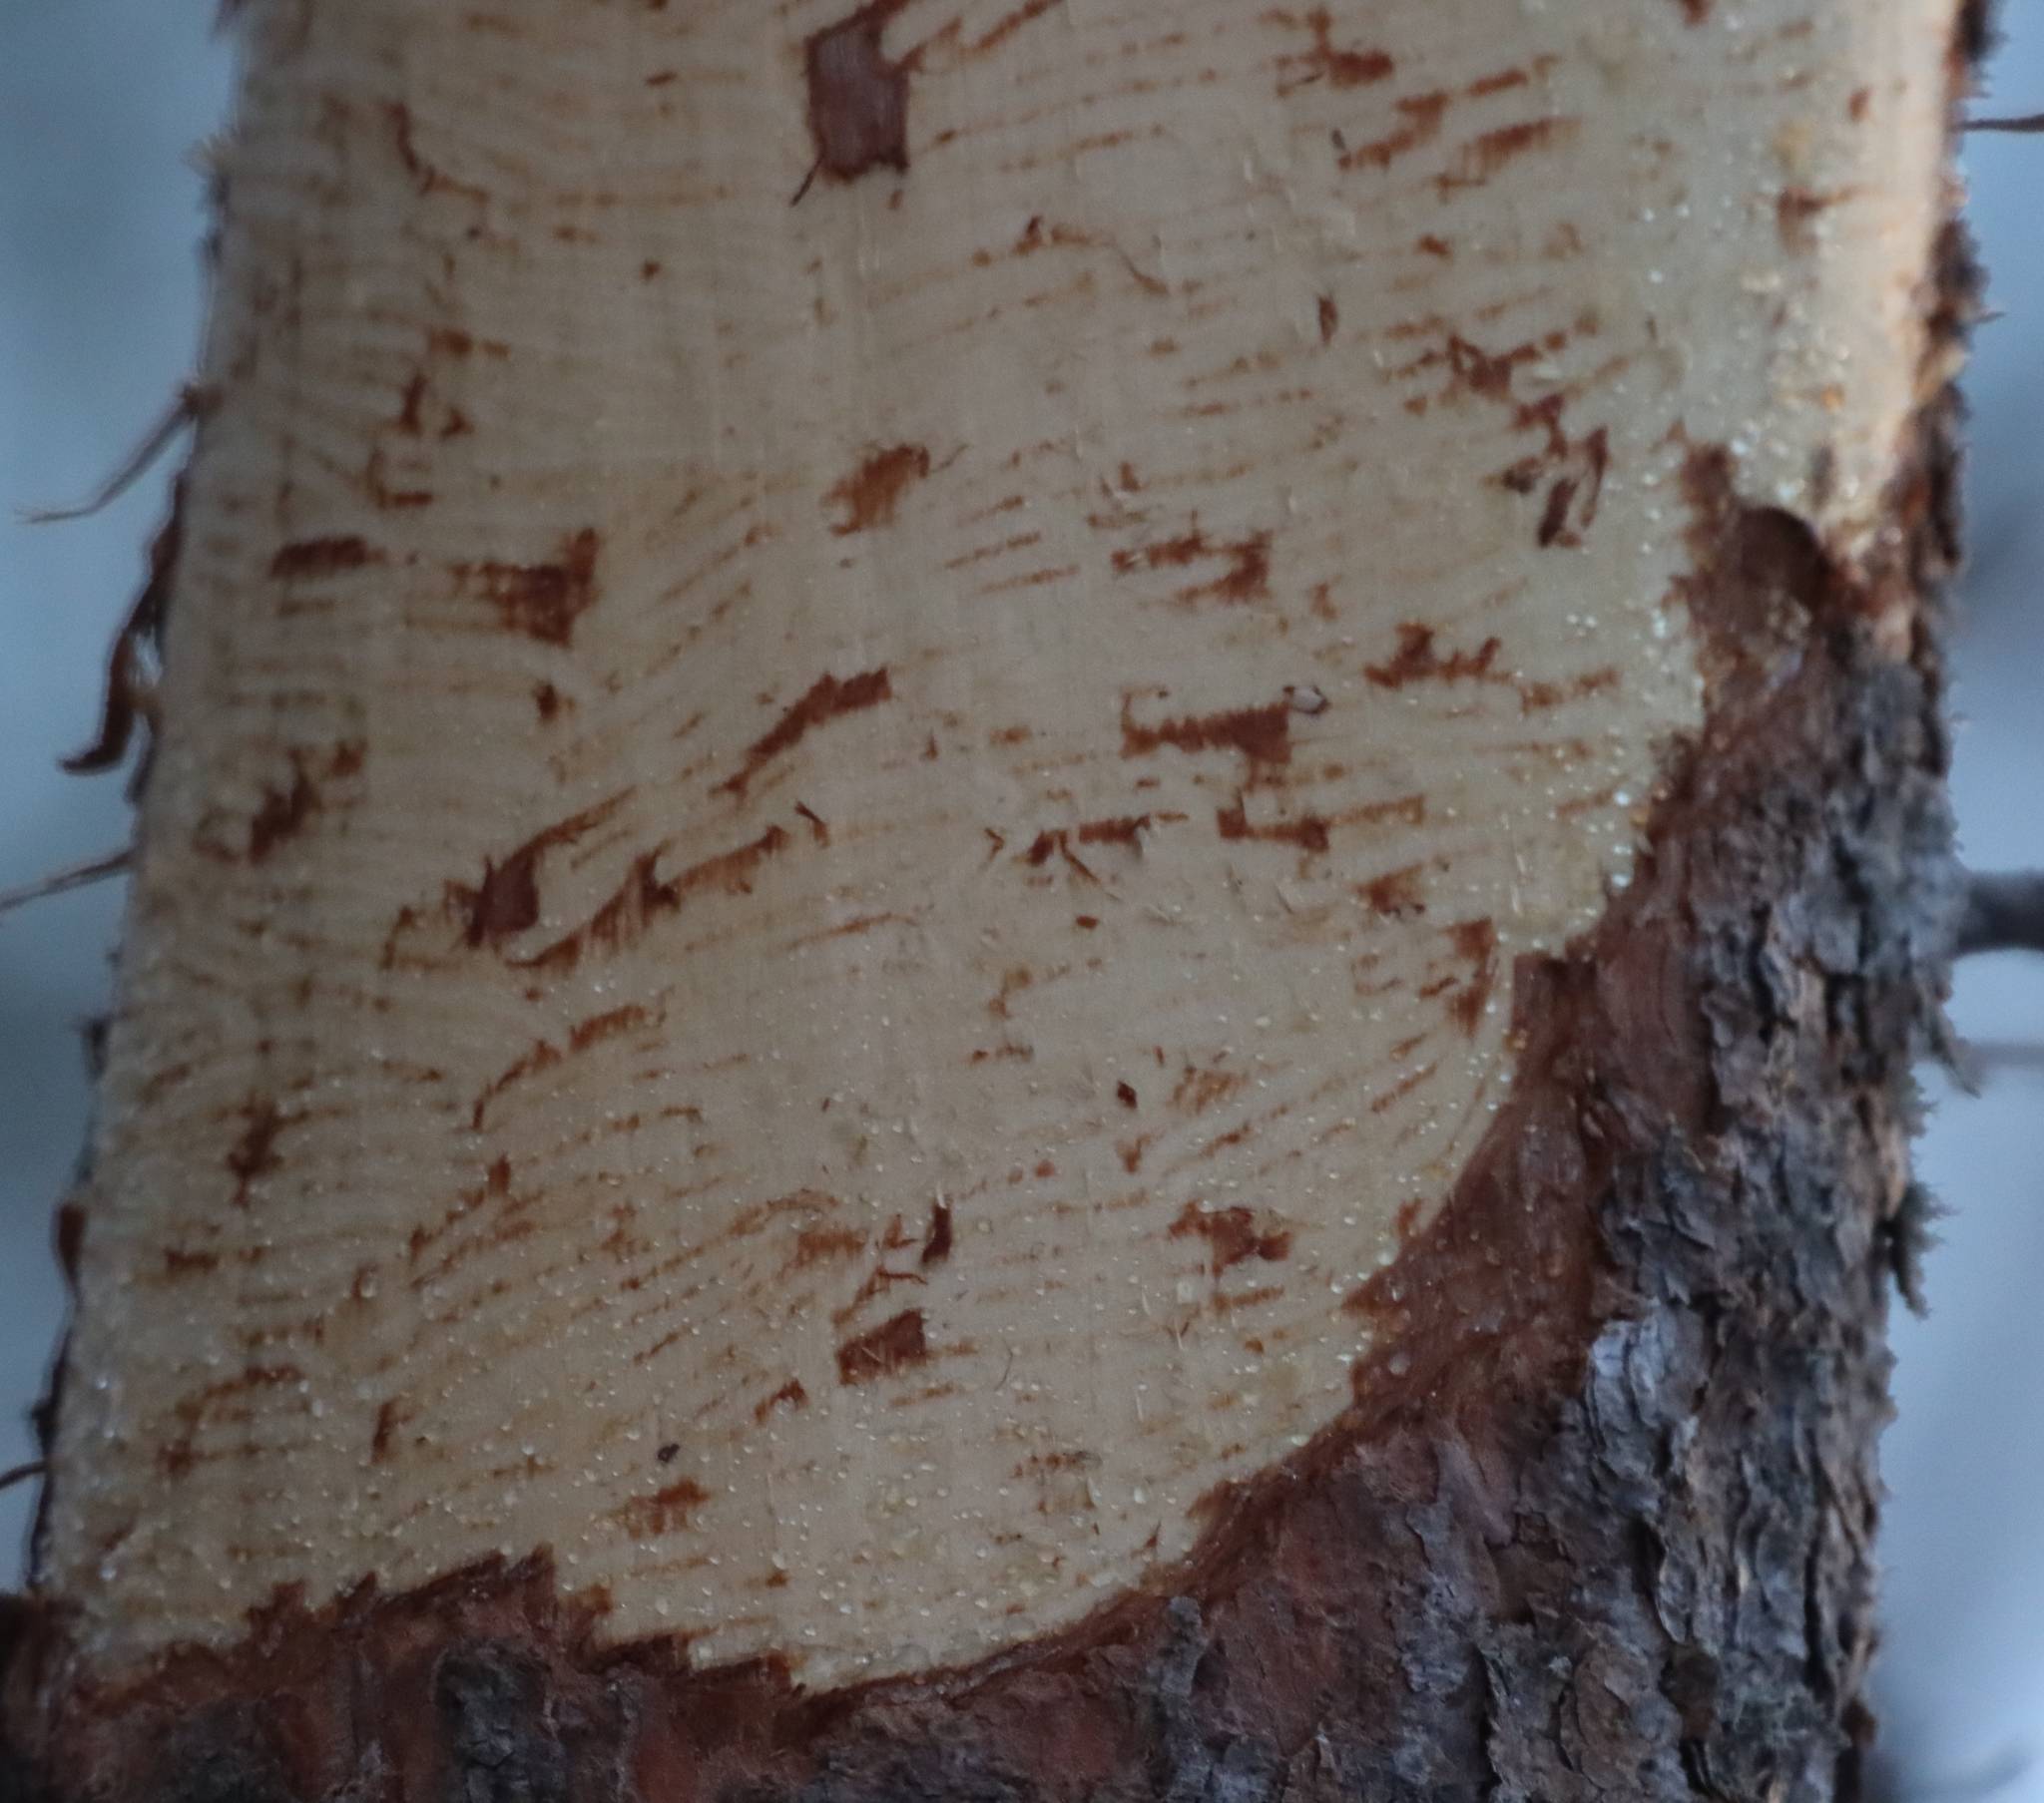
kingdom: Animalia
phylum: Chordata
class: Mammalia
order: Rodentia
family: Erethizontidae
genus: Erethizon
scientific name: Erethizon dorsatus
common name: North american porcupine
